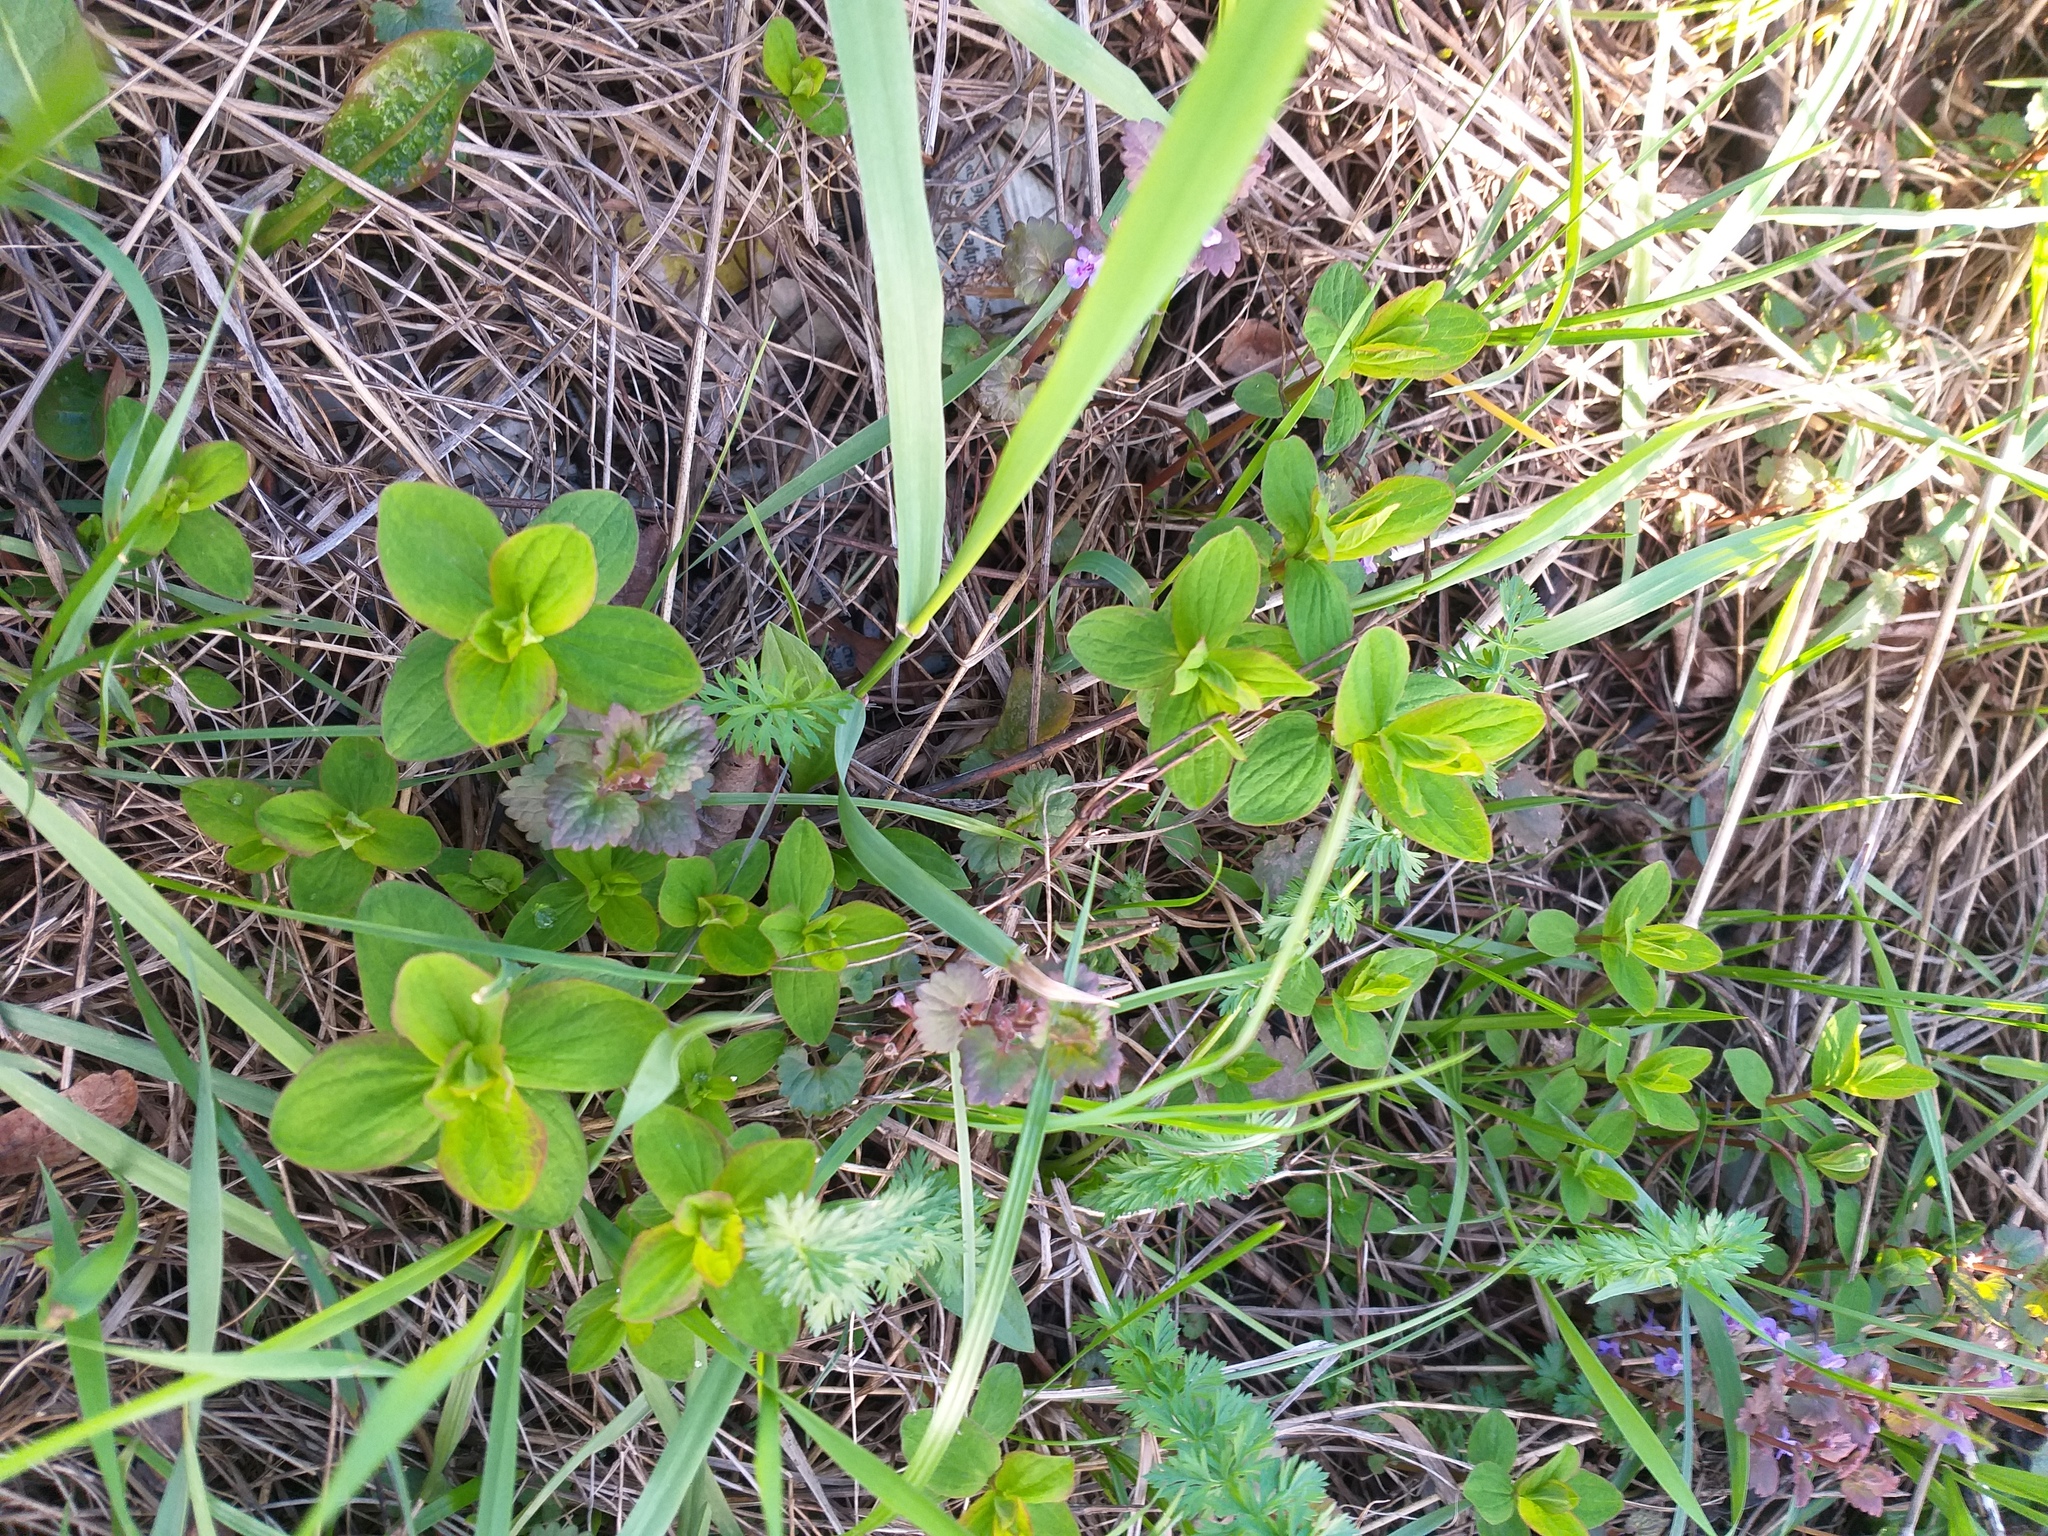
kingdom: Plantae
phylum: Tracheophyta
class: Magnoliopsida
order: Malpighiales
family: Hypericaceae
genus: Hypericum
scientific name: Hypericum maculatum
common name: Imperforate st. john's-wort
